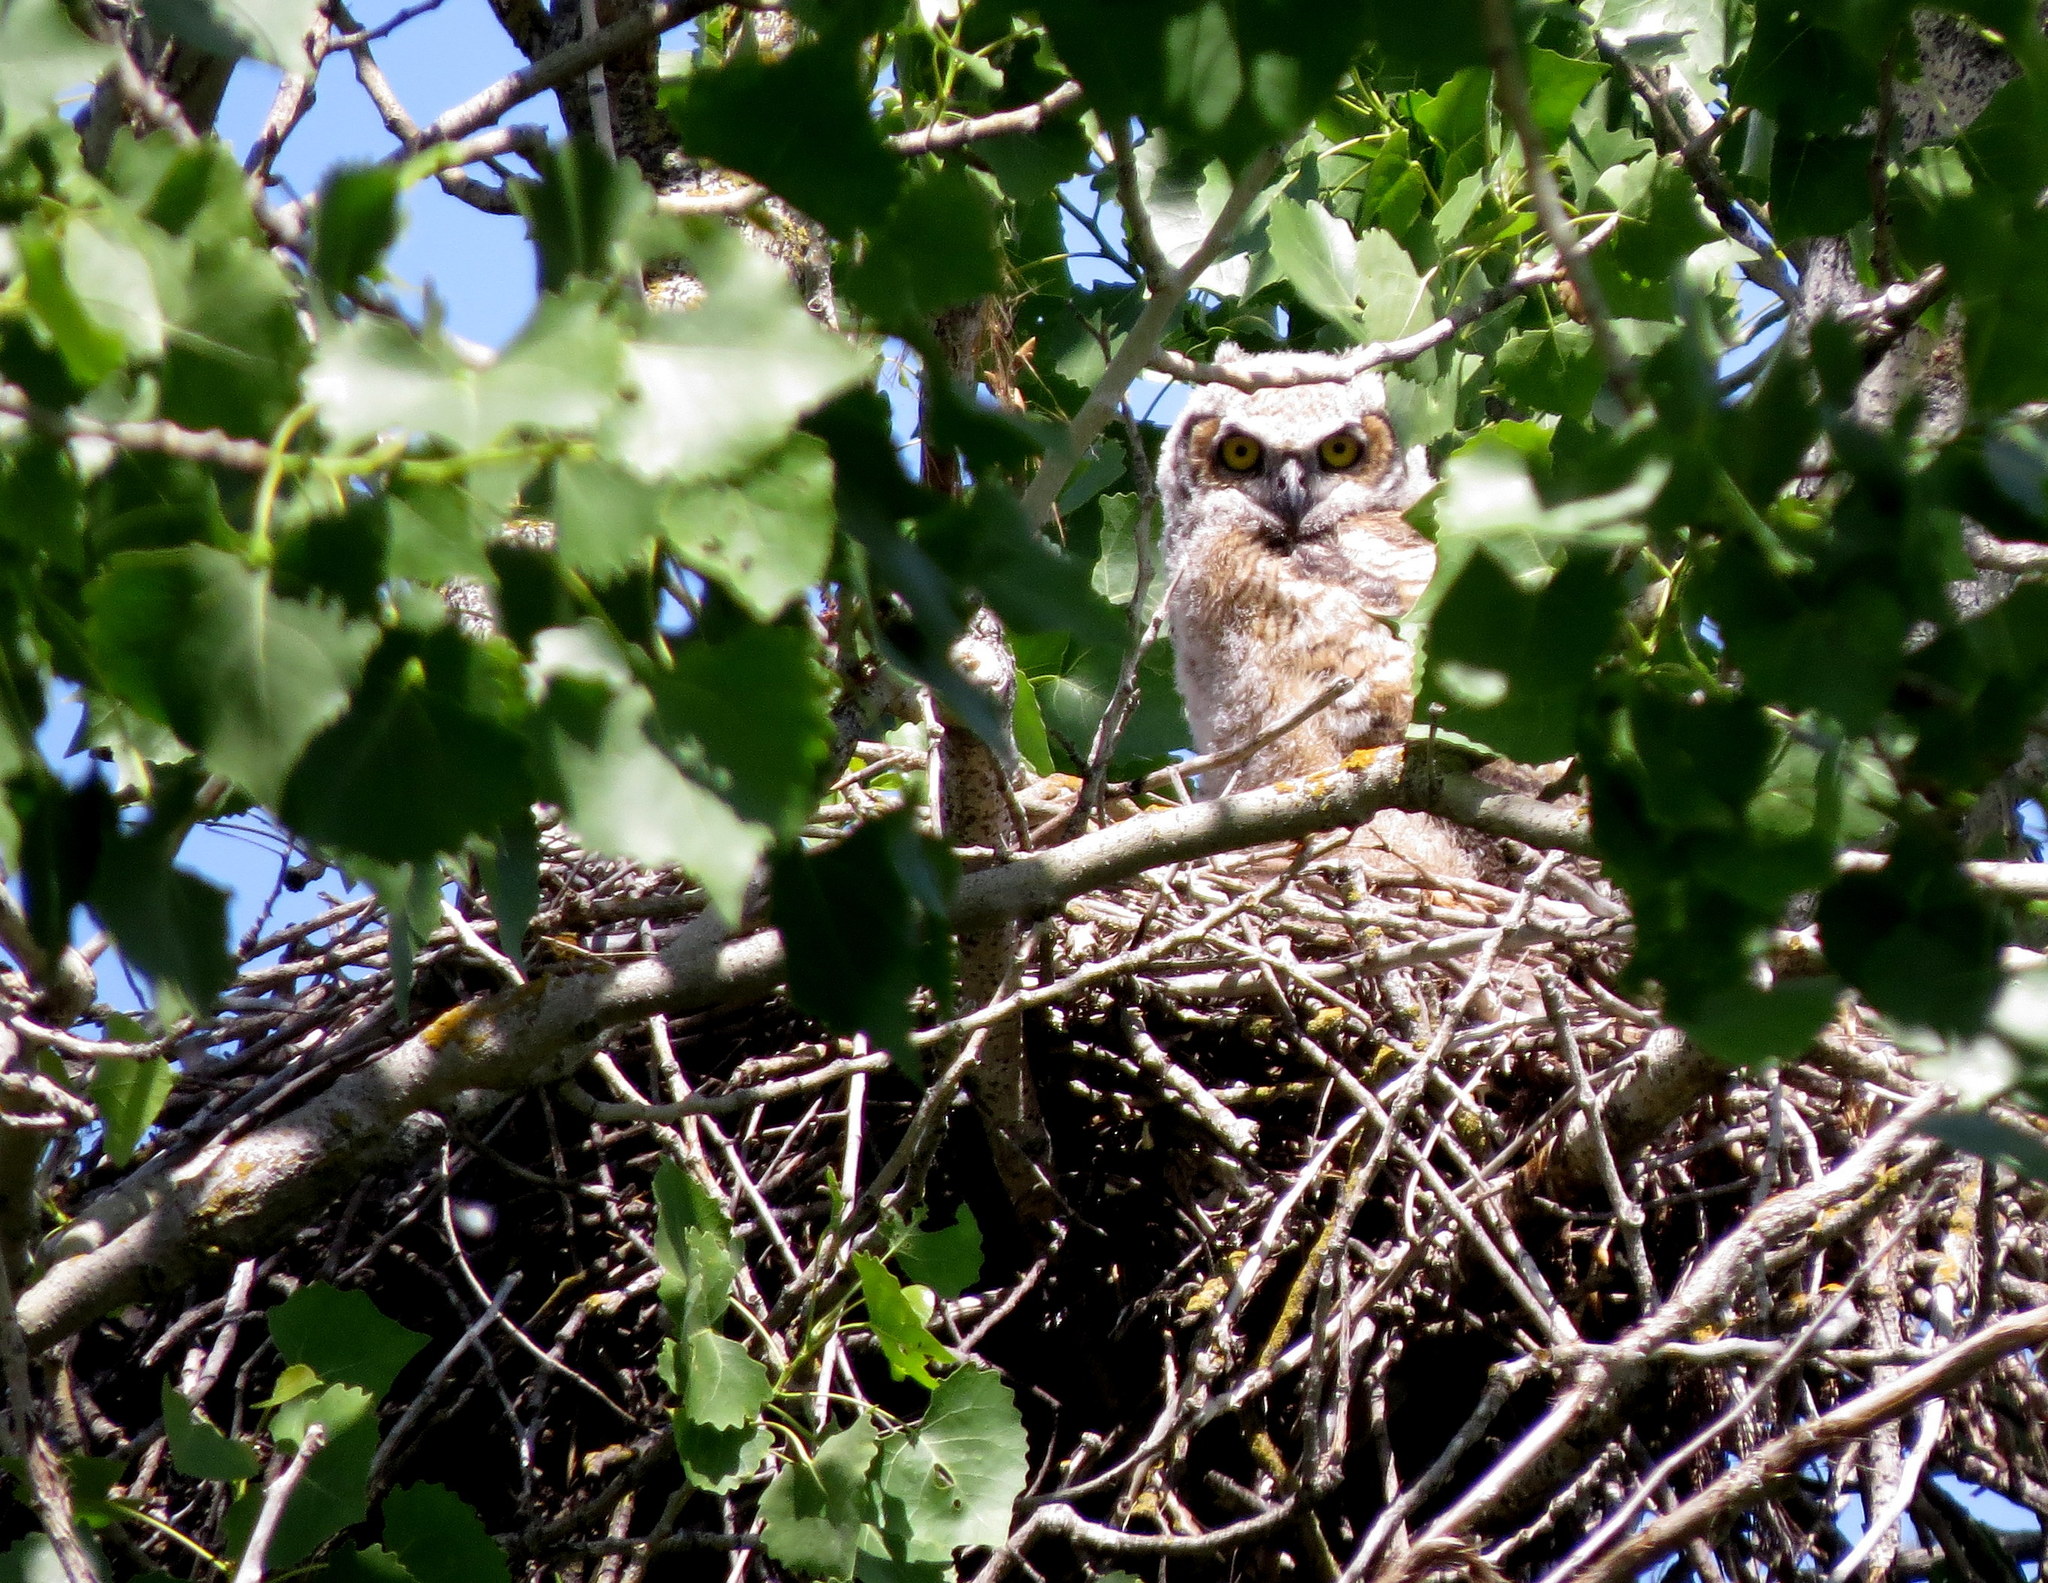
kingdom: Animalia
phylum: Chordata
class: Aves
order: Strigiformes
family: Strigidae
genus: Bubo
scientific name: Bubo virginianus
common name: Great horned owl
